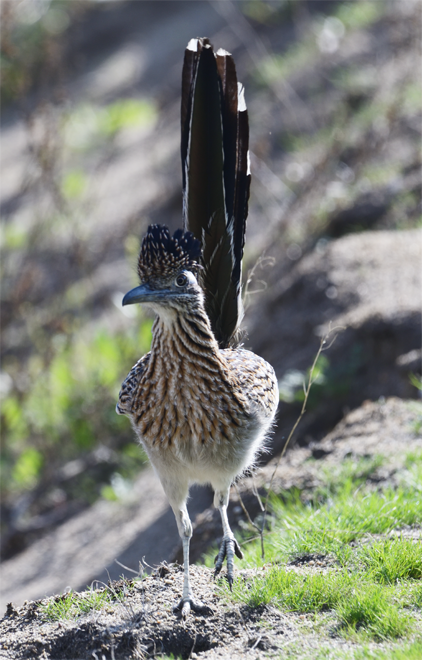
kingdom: Animalia
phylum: Chordata
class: Aves
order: Cuculiformes
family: Cuculidae
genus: Geococcyx
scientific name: Geococcyx californianus
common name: Greater roadrunner
